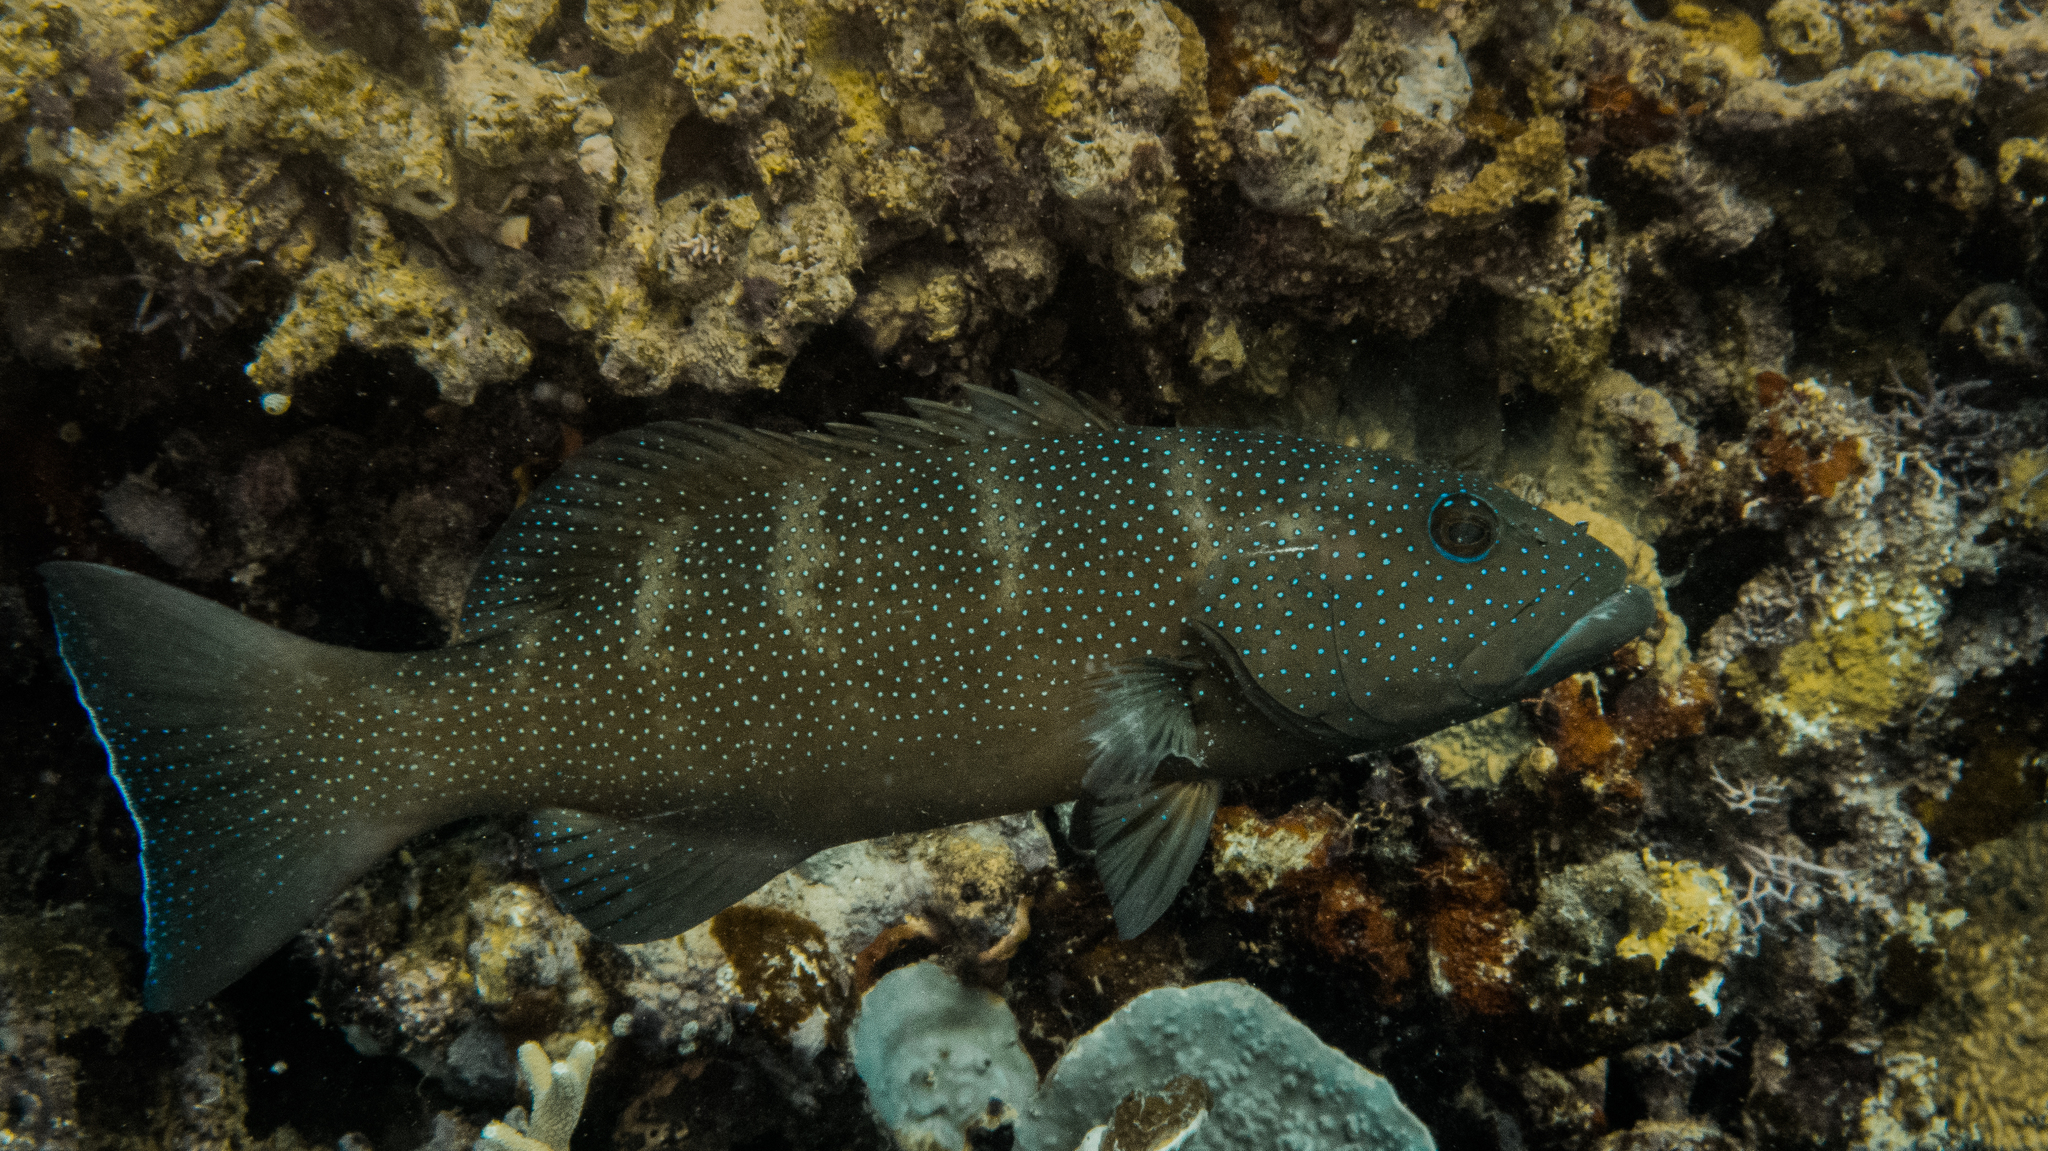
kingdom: Animalia
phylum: Chordata
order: Perciformes
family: Serranidae
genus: Plectropomus
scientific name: Plectropomus leopardus
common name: Coral trout
